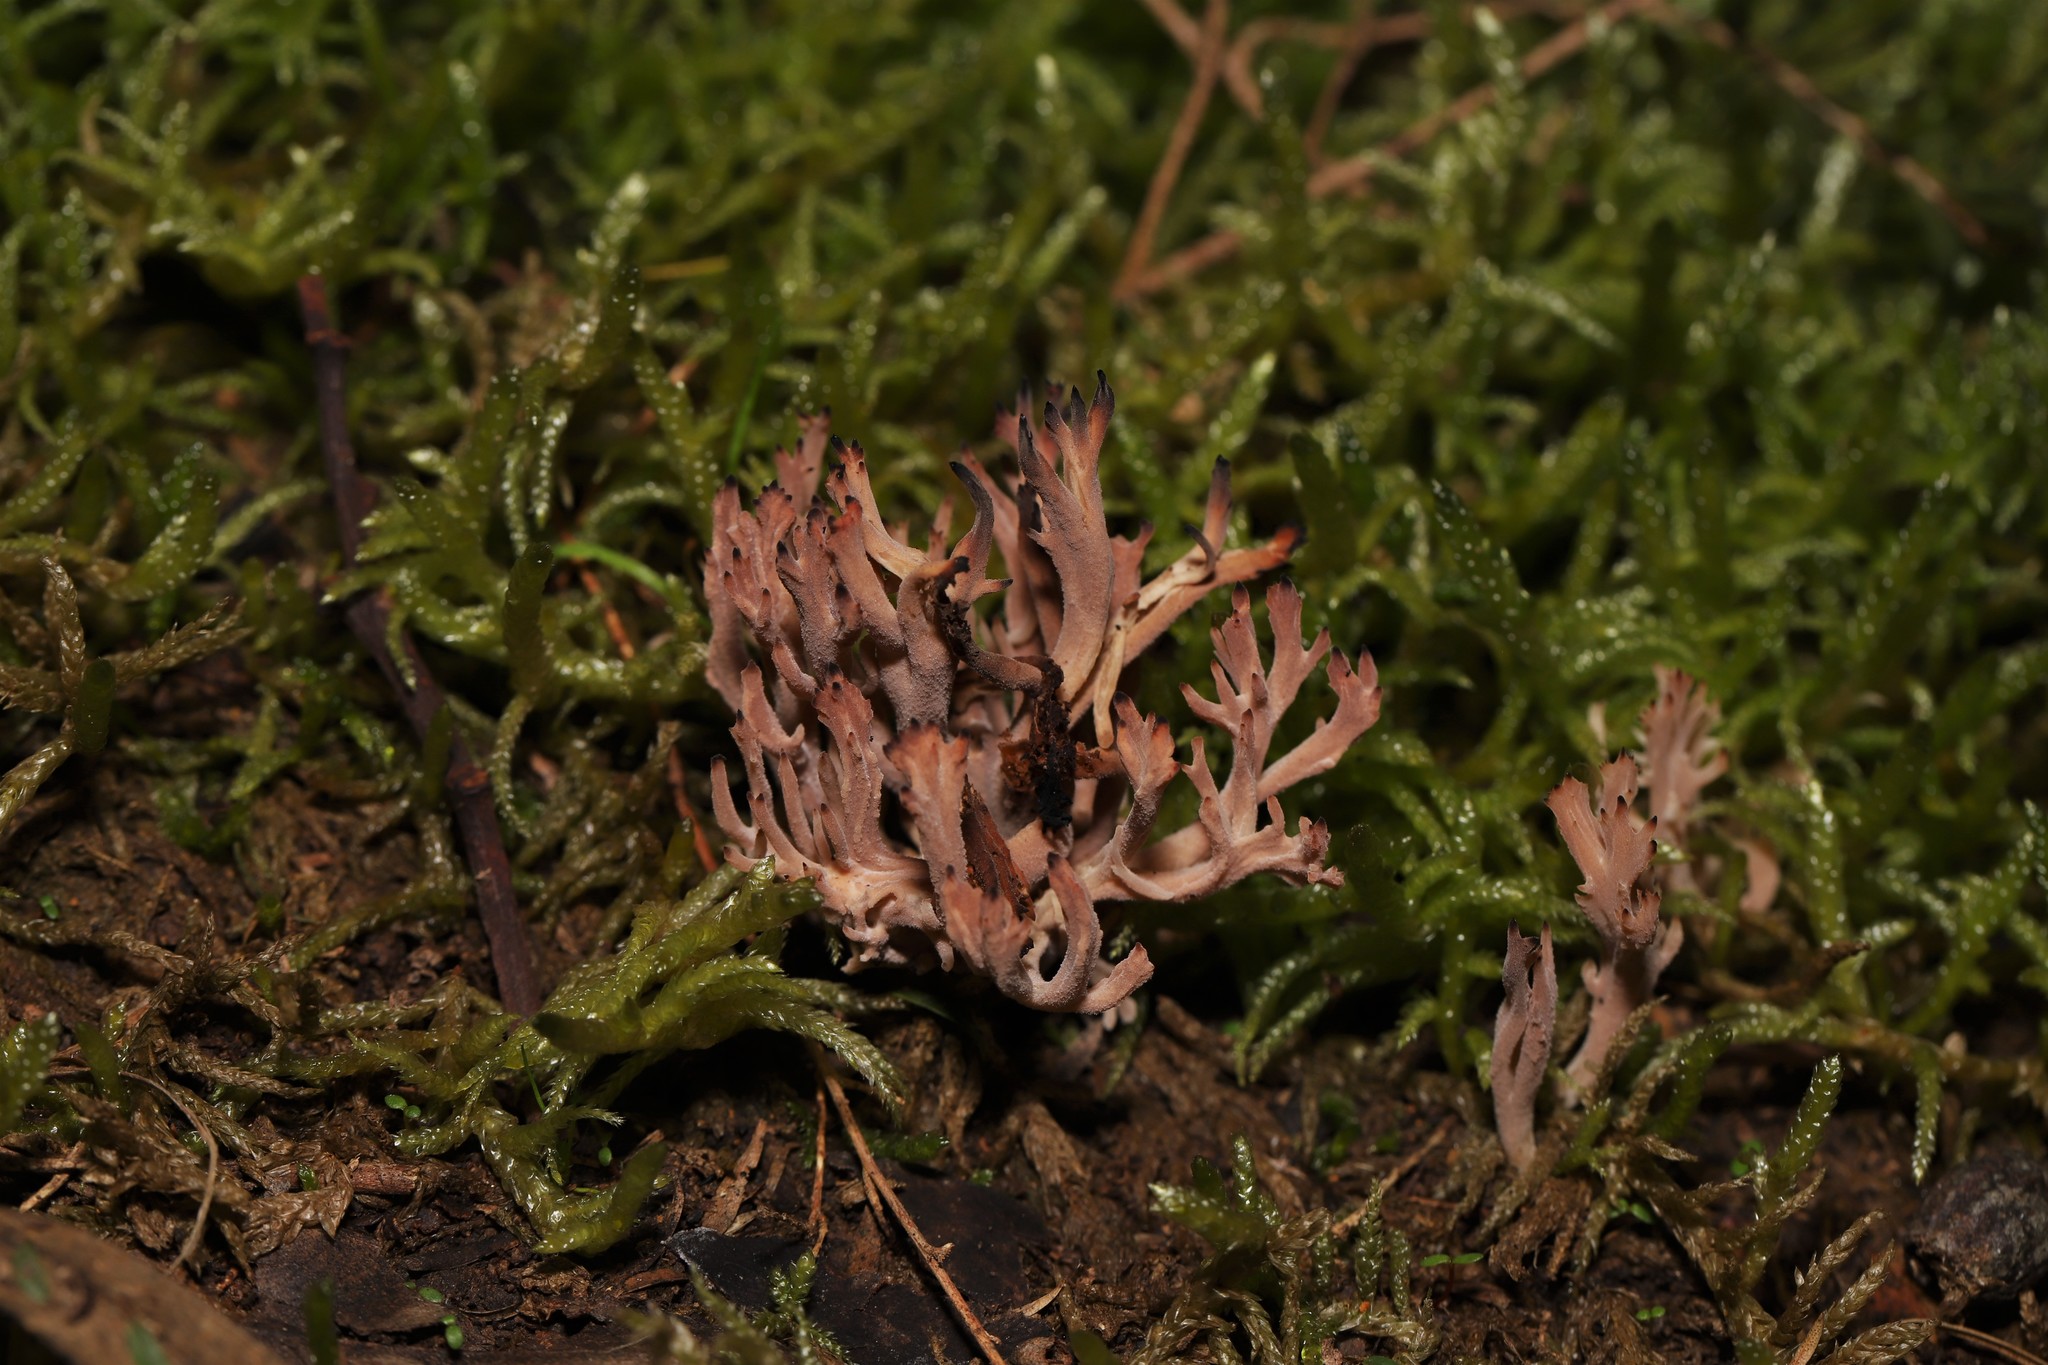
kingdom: Fungi
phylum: Basidiomycota
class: Agaricomycetes
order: Cantharellales
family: Hydnaceae
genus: Clavulina
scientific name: Clavulina vinaceocervina
